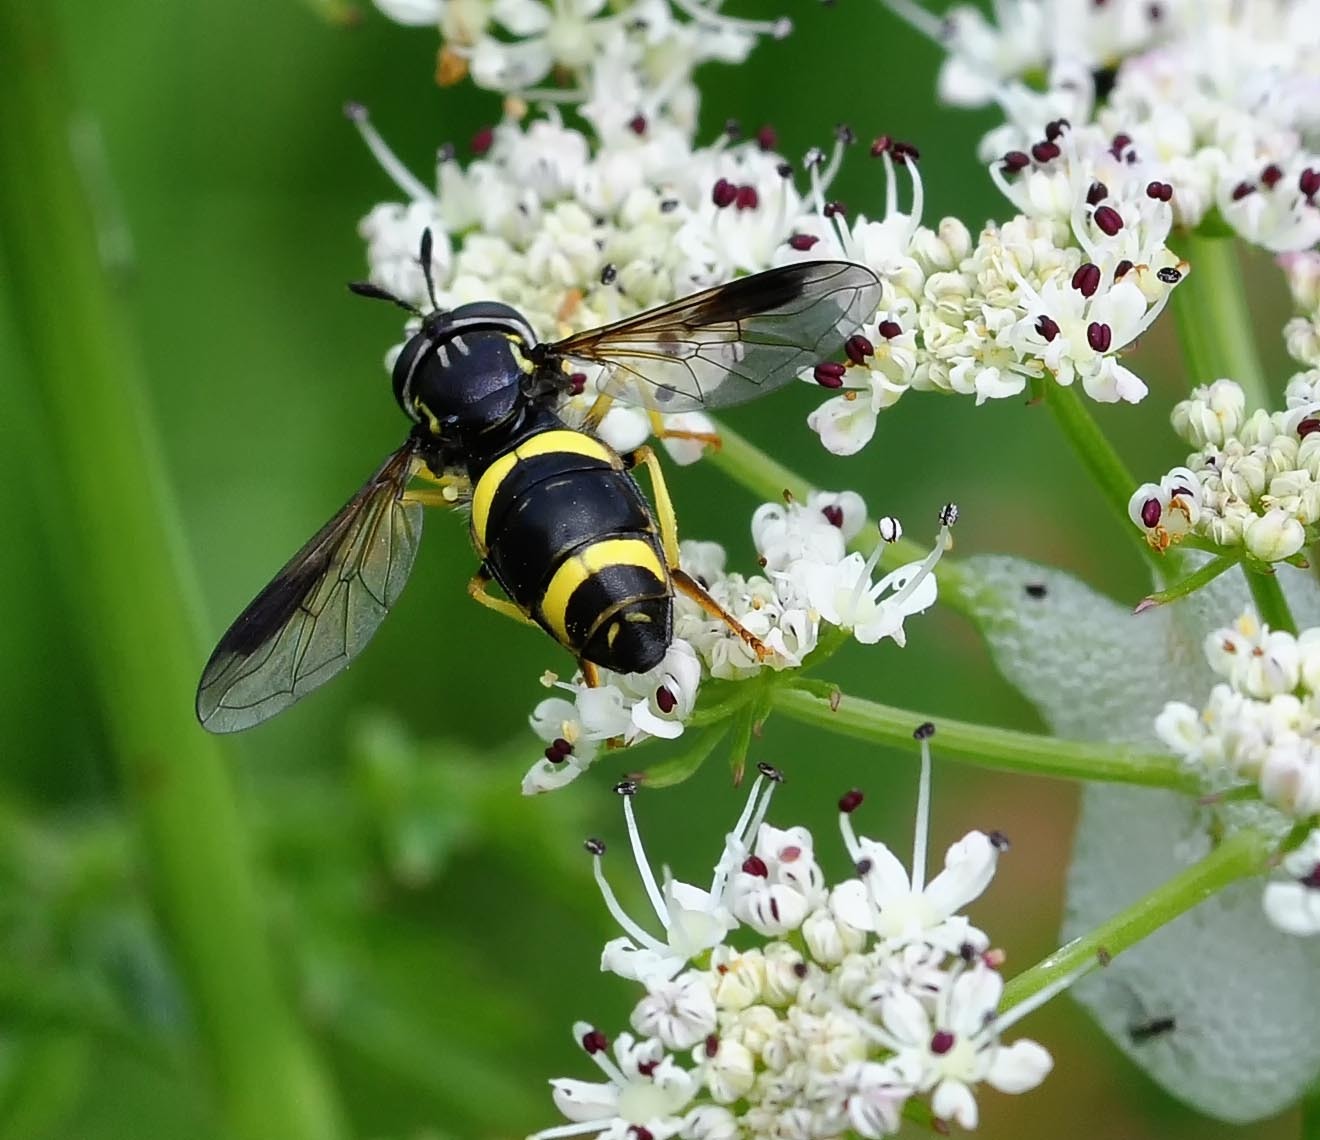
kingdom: Animalia
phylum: Arthropoda
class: Insecta
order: Diptera
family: Syrphidae
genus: Chrysotoxum
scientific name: Chrysotoxum bicincta
